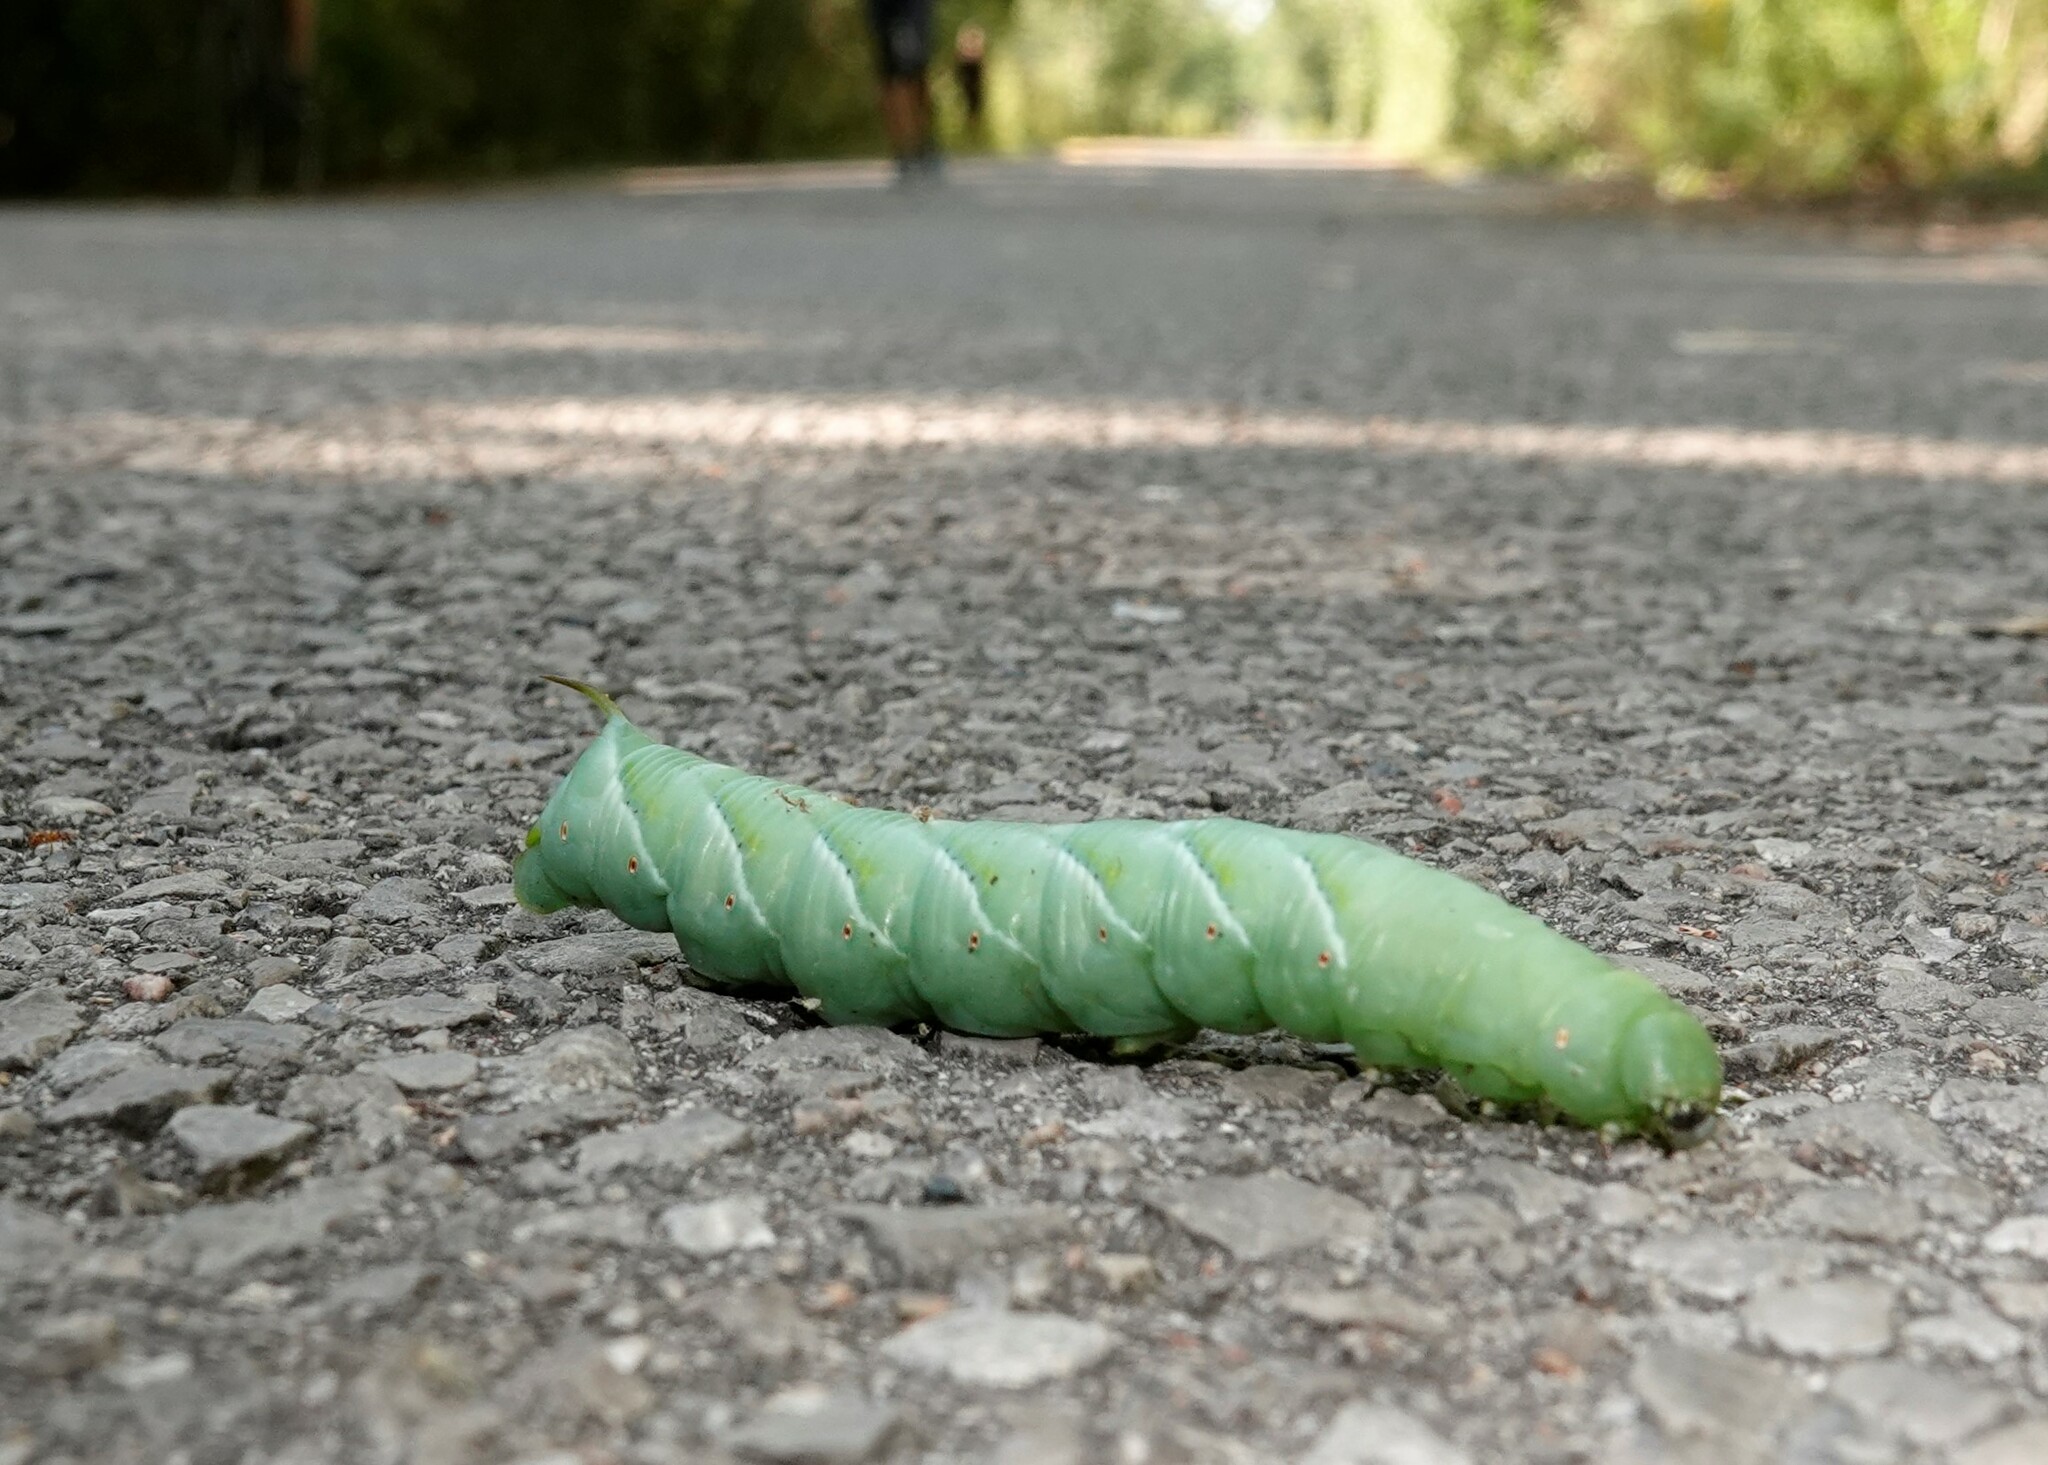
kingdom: Animalia
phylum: Arthropoda
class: Insecta
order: Lepidoptera
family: Sphingidae
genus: Manduca
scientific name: Manduca sexta
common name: Carolina sphinx
